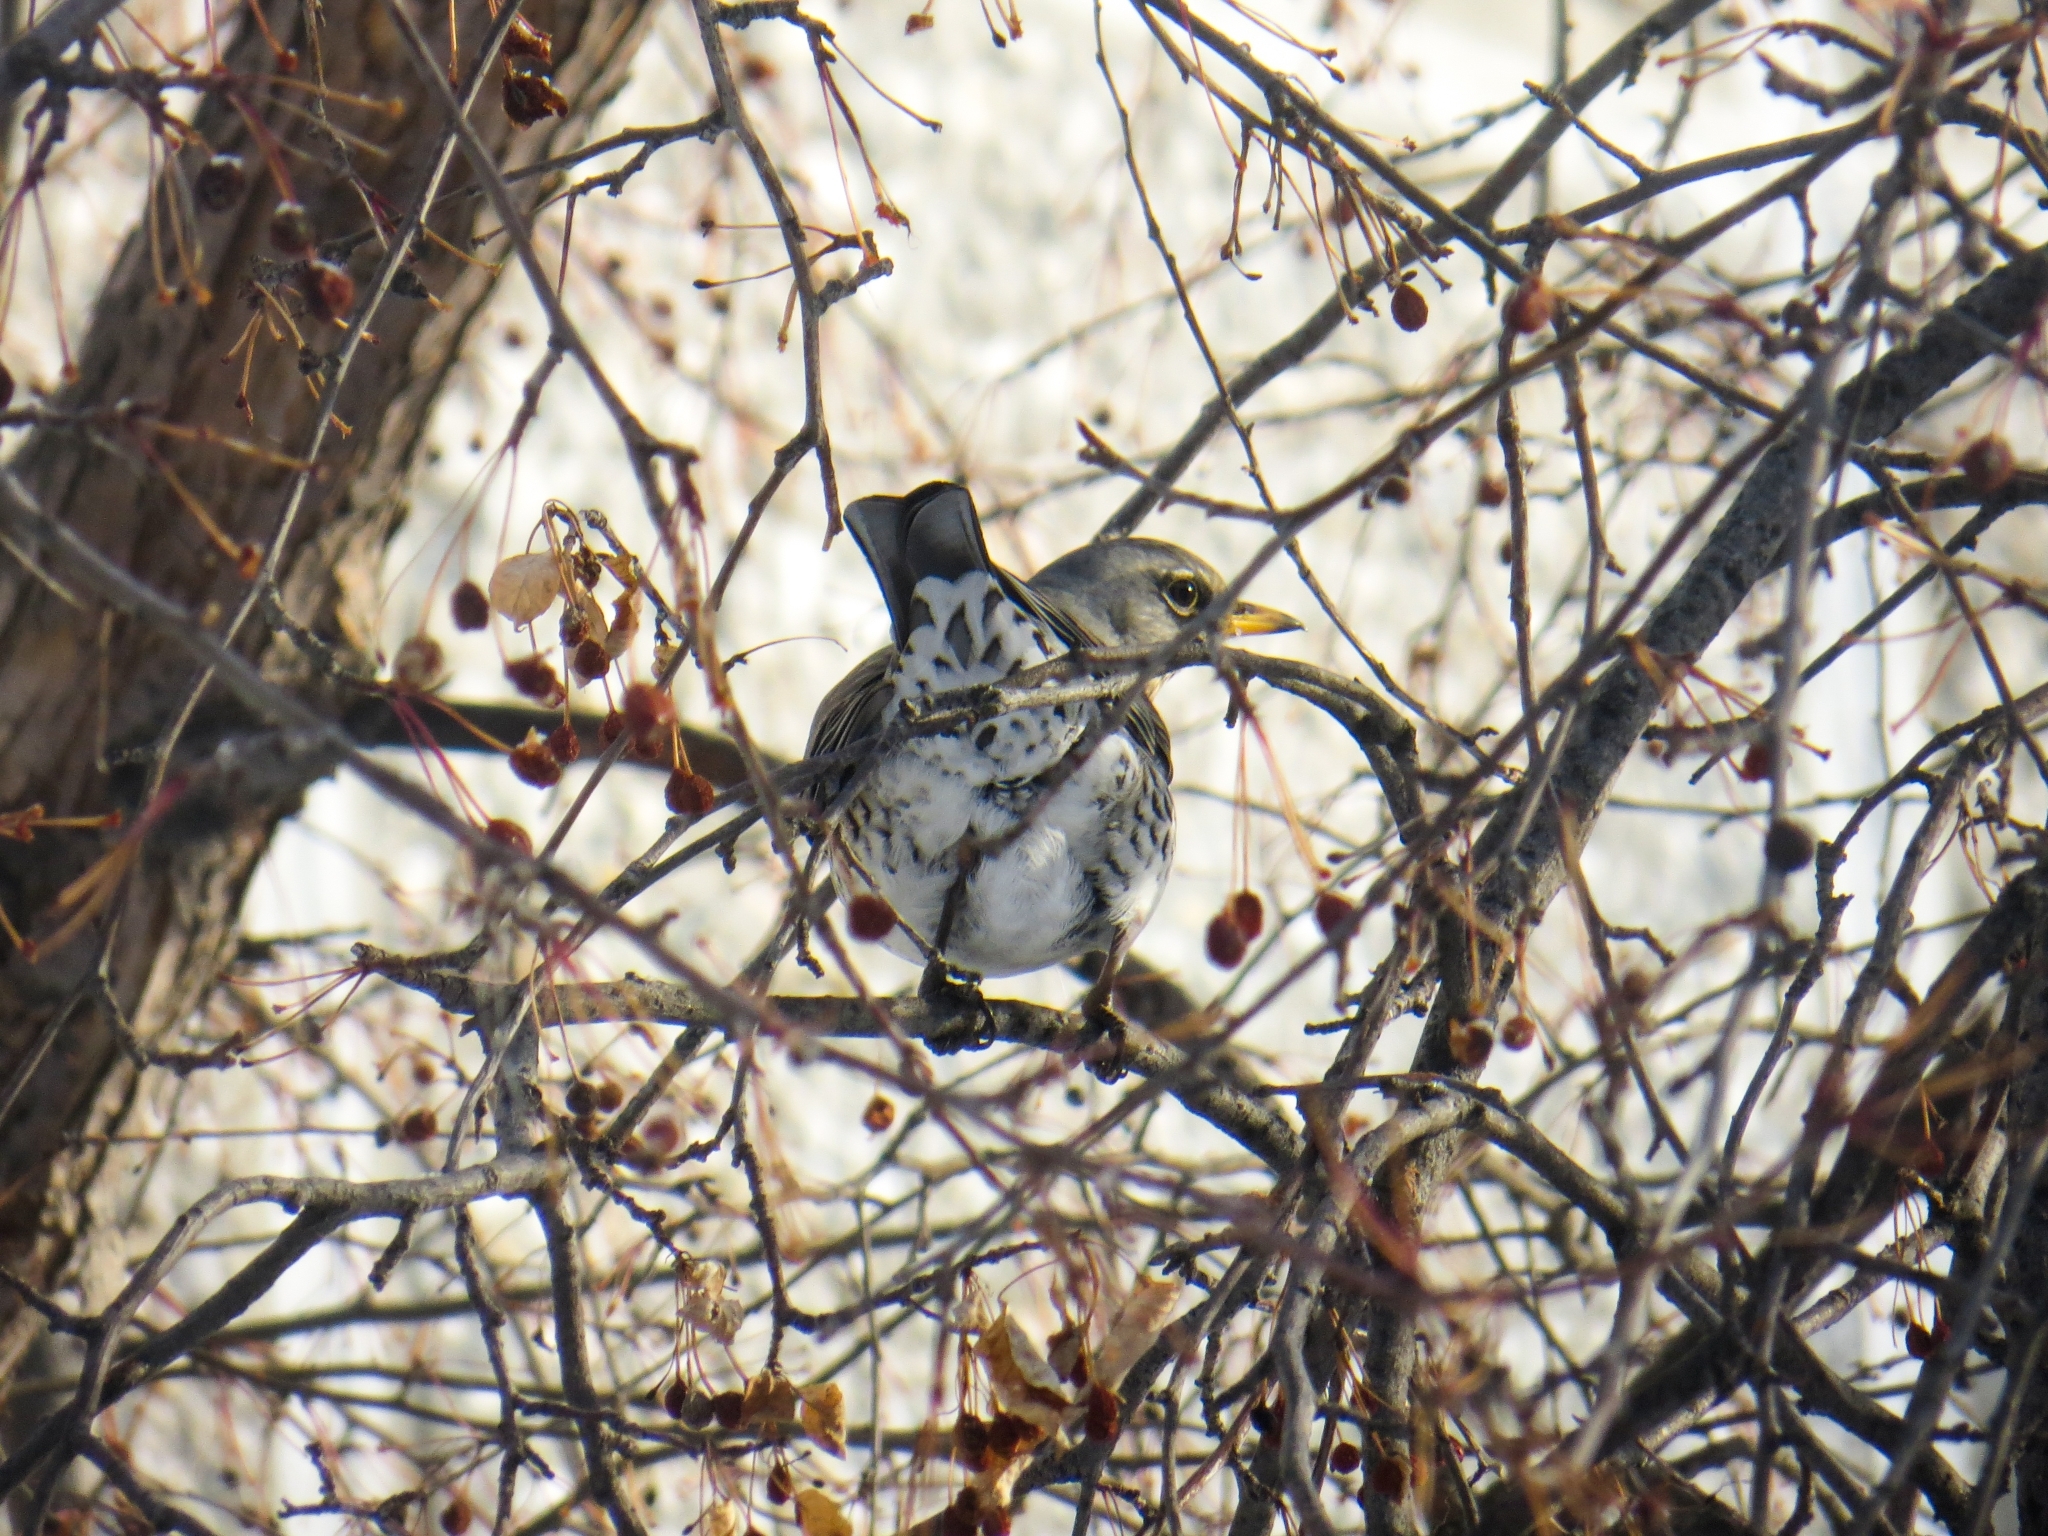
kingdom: Animalia
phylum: Chordata
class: Aves
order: Passeriformes
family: Turdidae
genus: Turdus
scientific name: Turdus pilaris
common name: Fieldfare
